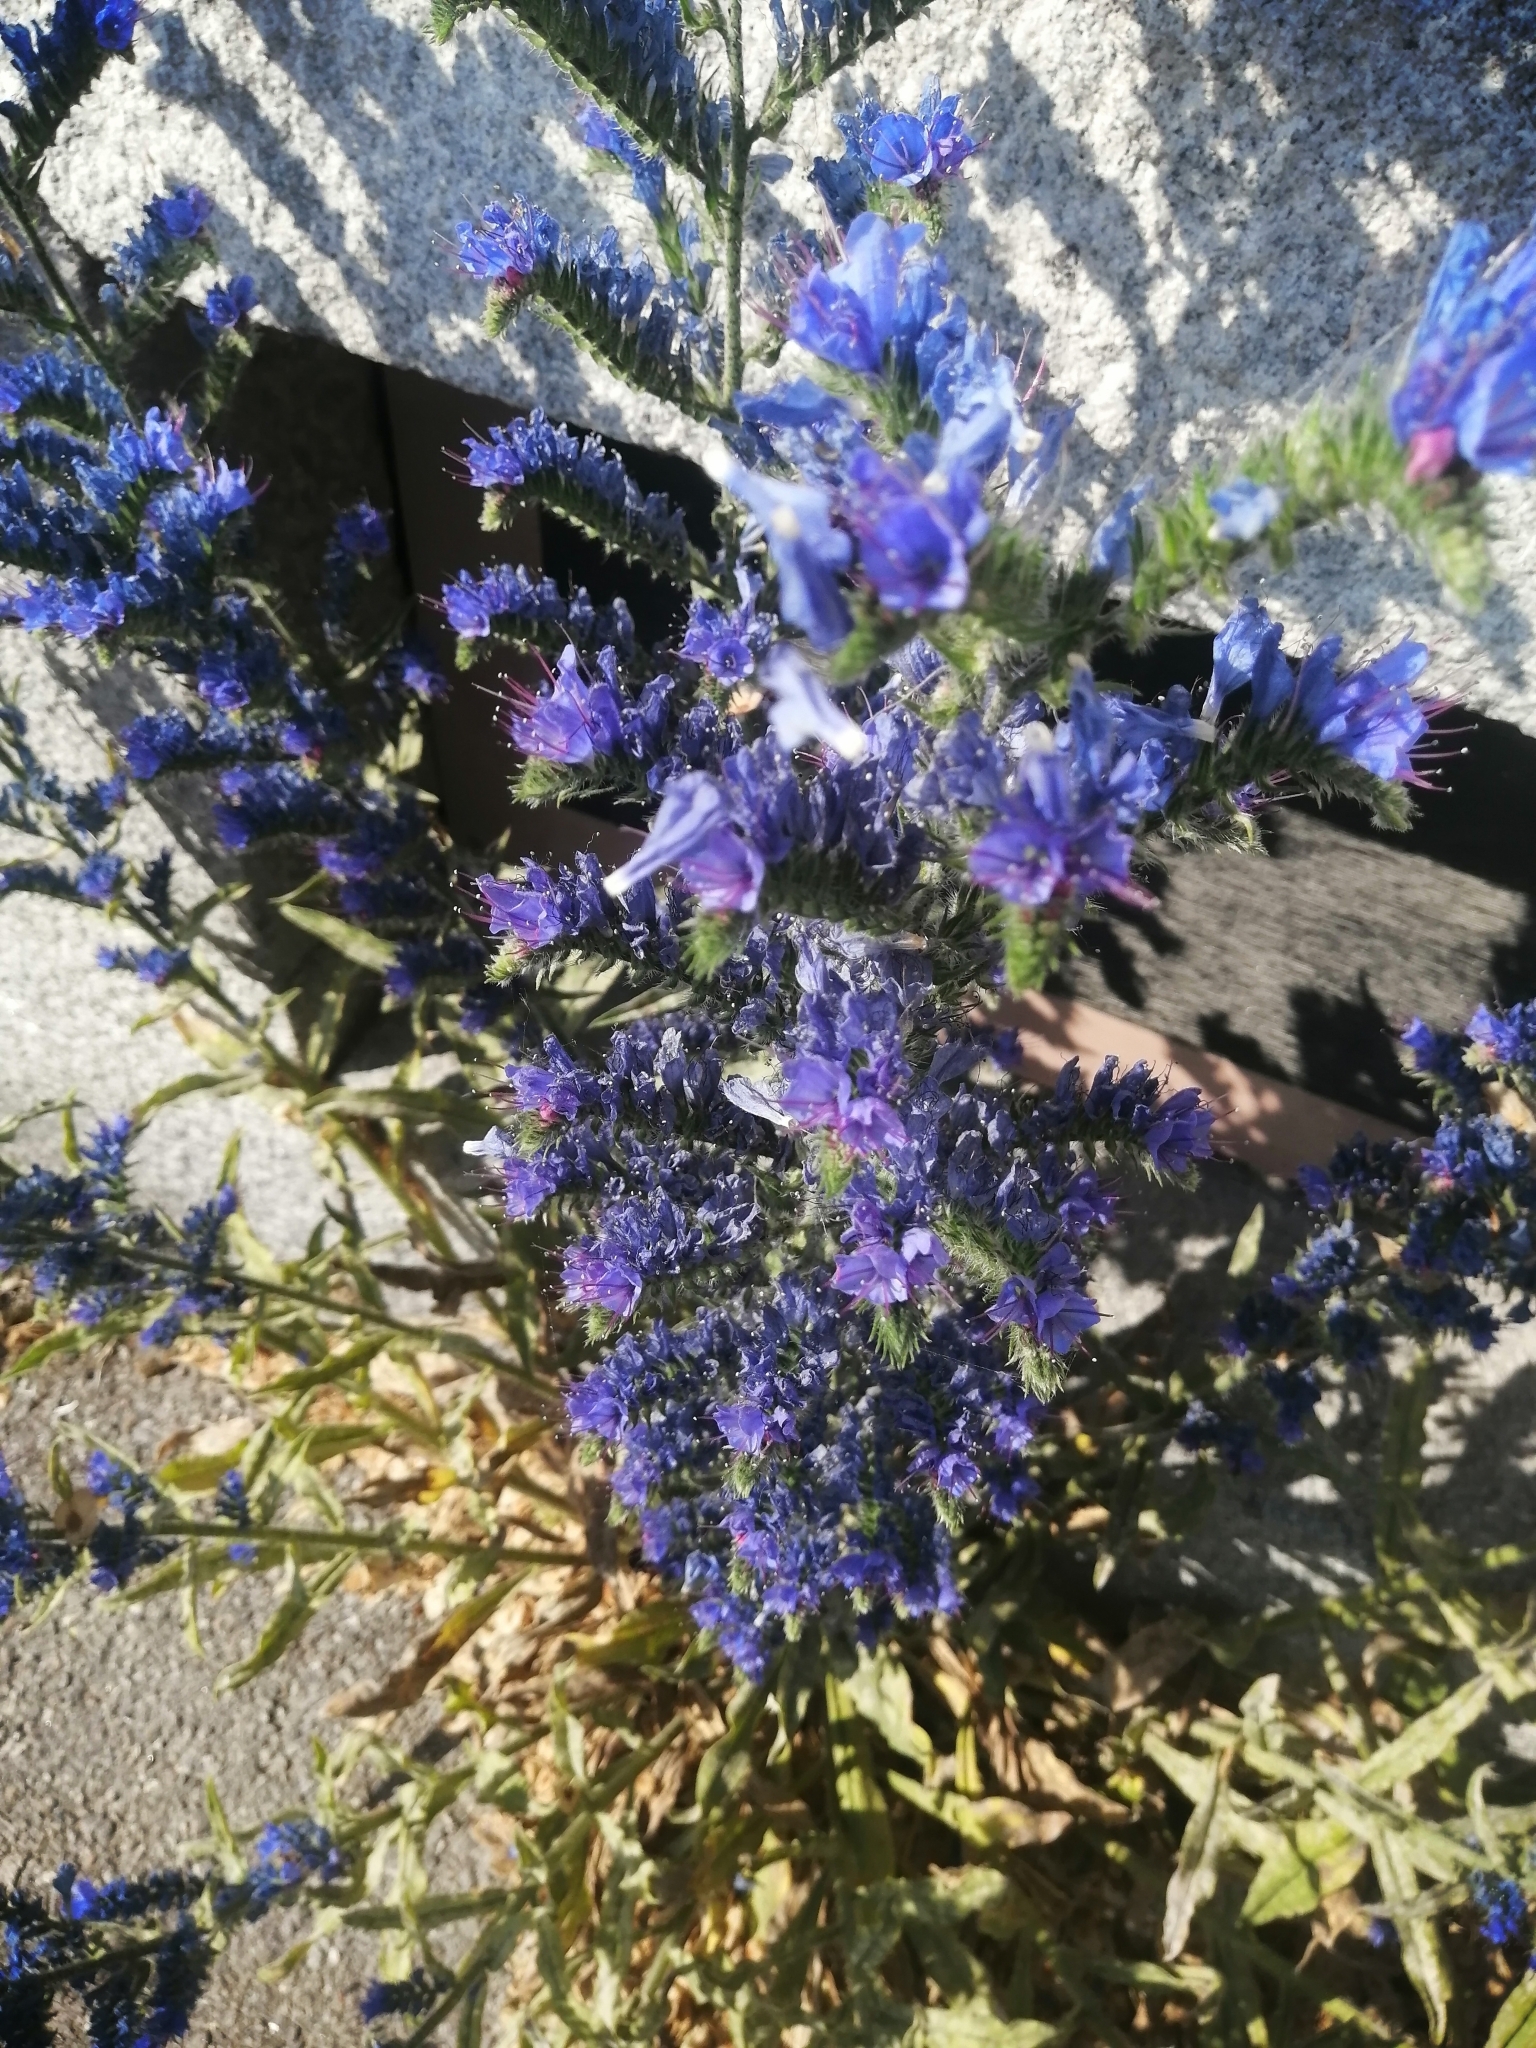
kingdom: Plantae
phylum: Tracheophyta
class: Magnoliopsida
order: Boraginales
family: Boraginaceae
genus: Echium
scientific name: Echium vulgare
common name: Common viper's bugloss
